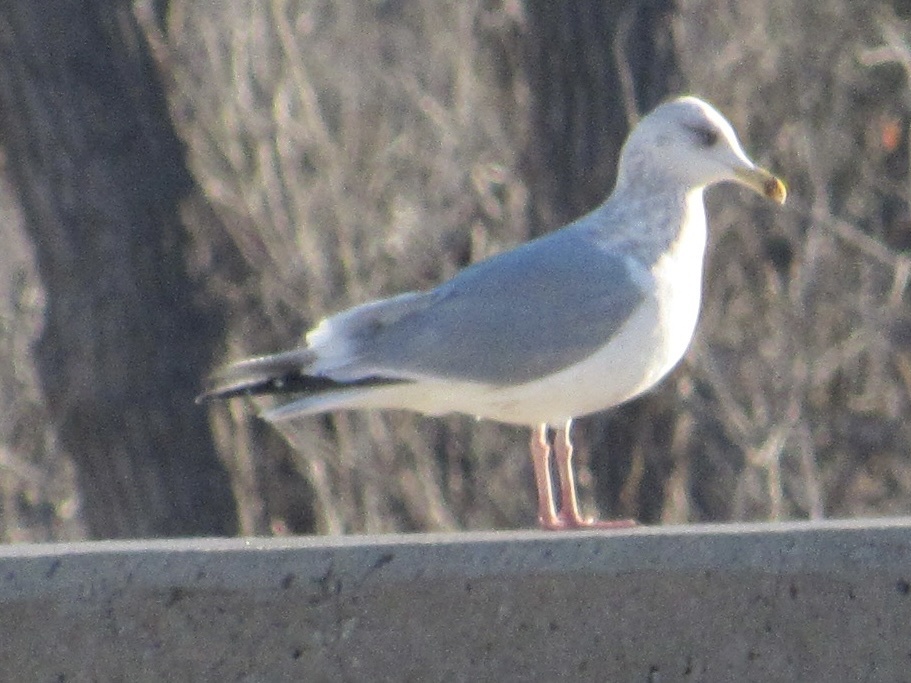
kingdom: Animalia
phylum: Chordata
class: Aves
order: Charadriiformes
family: Laridae
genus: Larus
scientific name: Larus argentatus
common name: Herring gull
